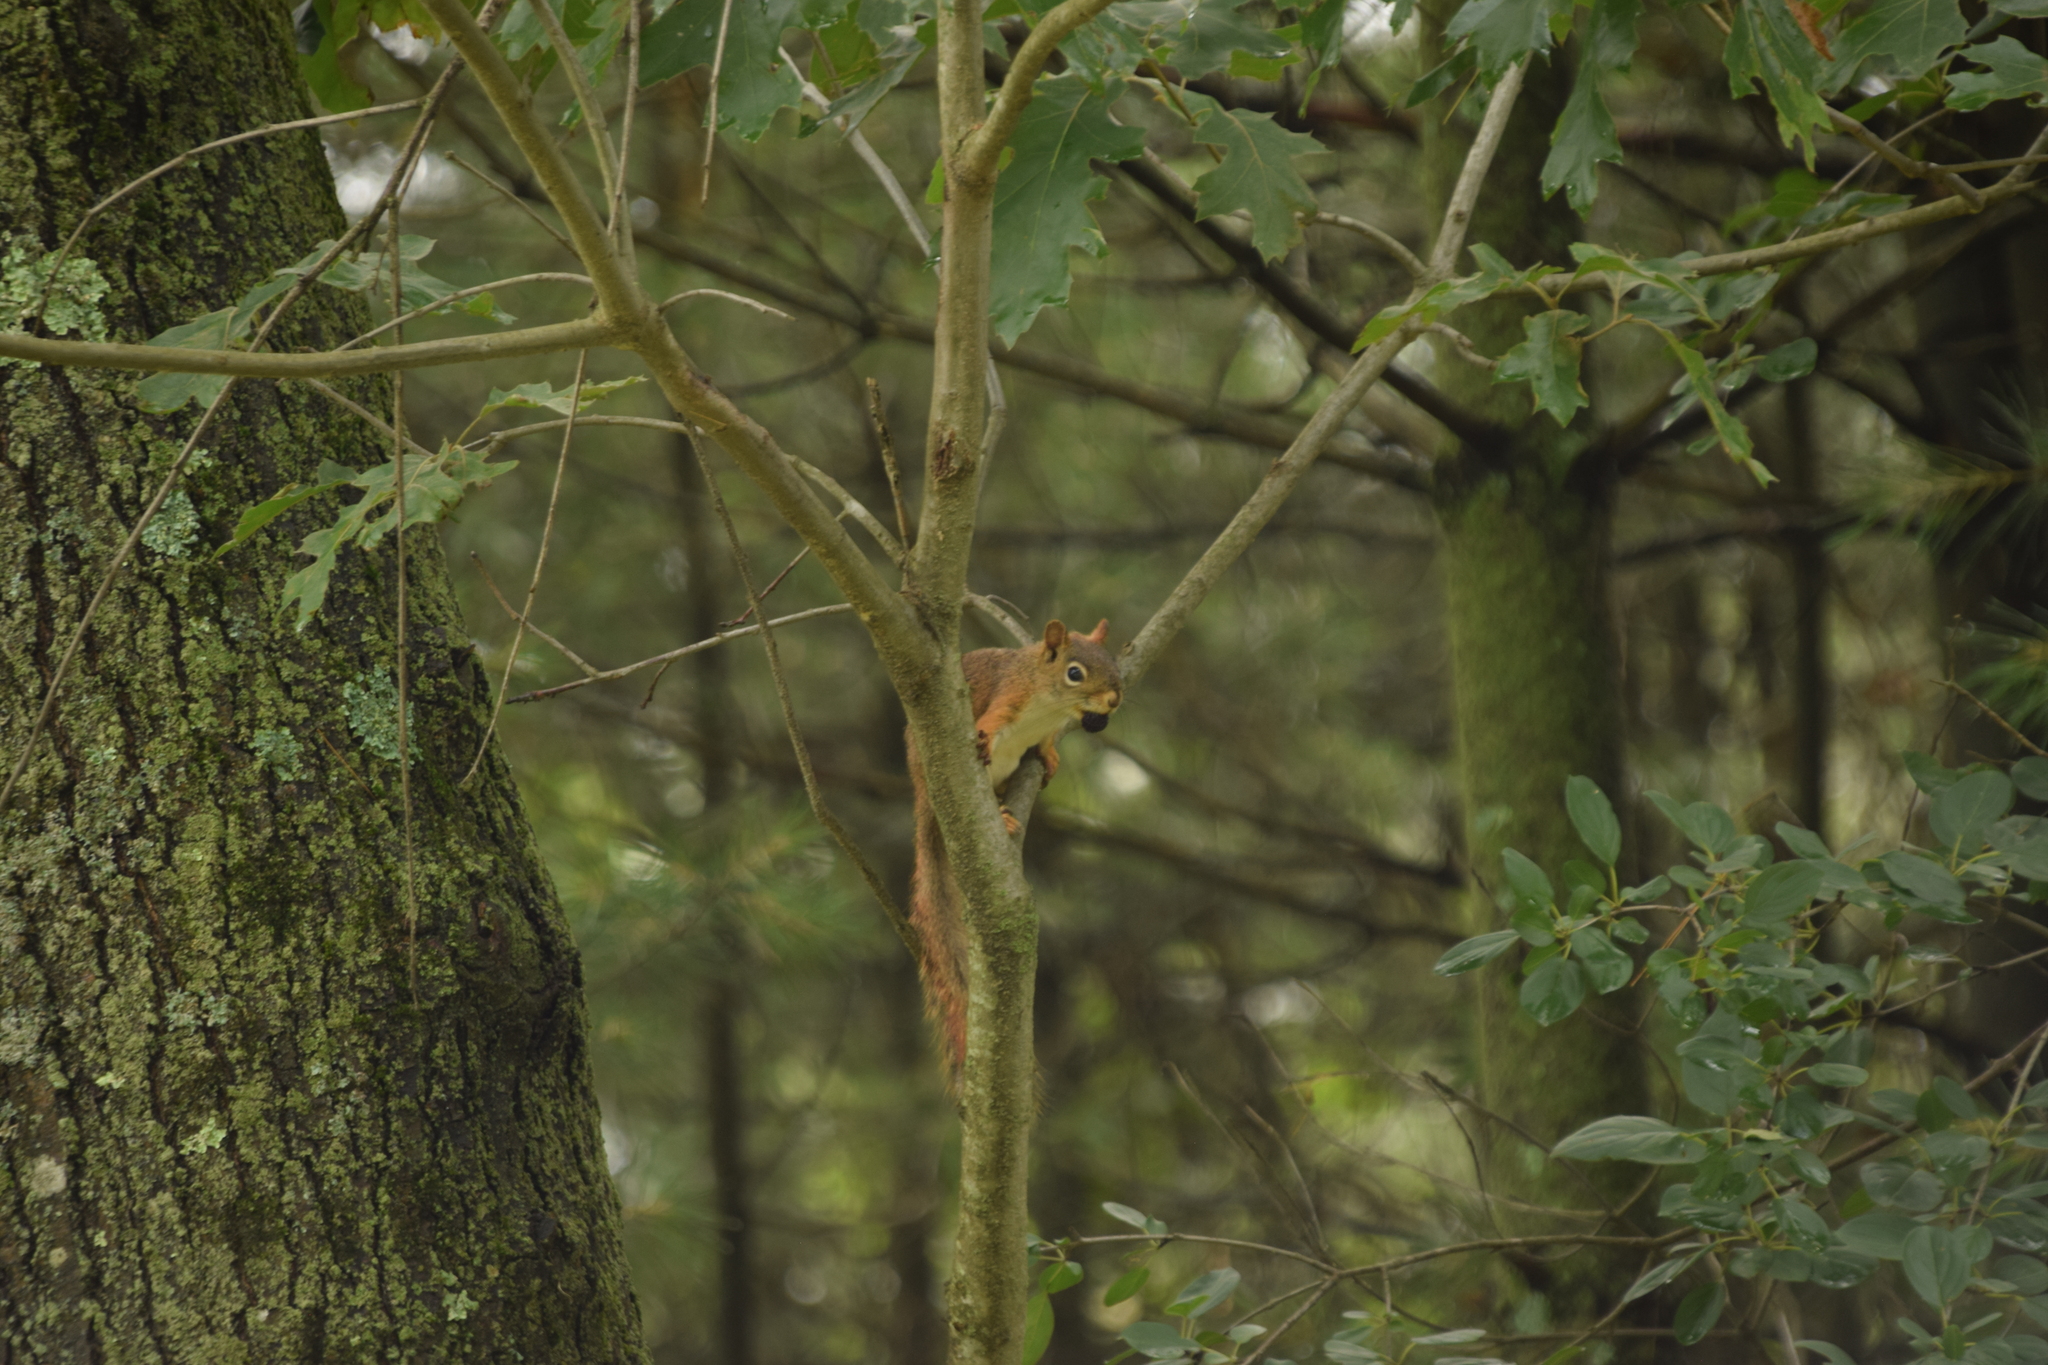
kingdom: Animalia
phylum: Chordata
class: Mammalia
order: Rodentia
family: Sciuridae
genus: Tamiasciurus
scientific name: Tamiasciurus hudsonicus
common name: Red squirrel
